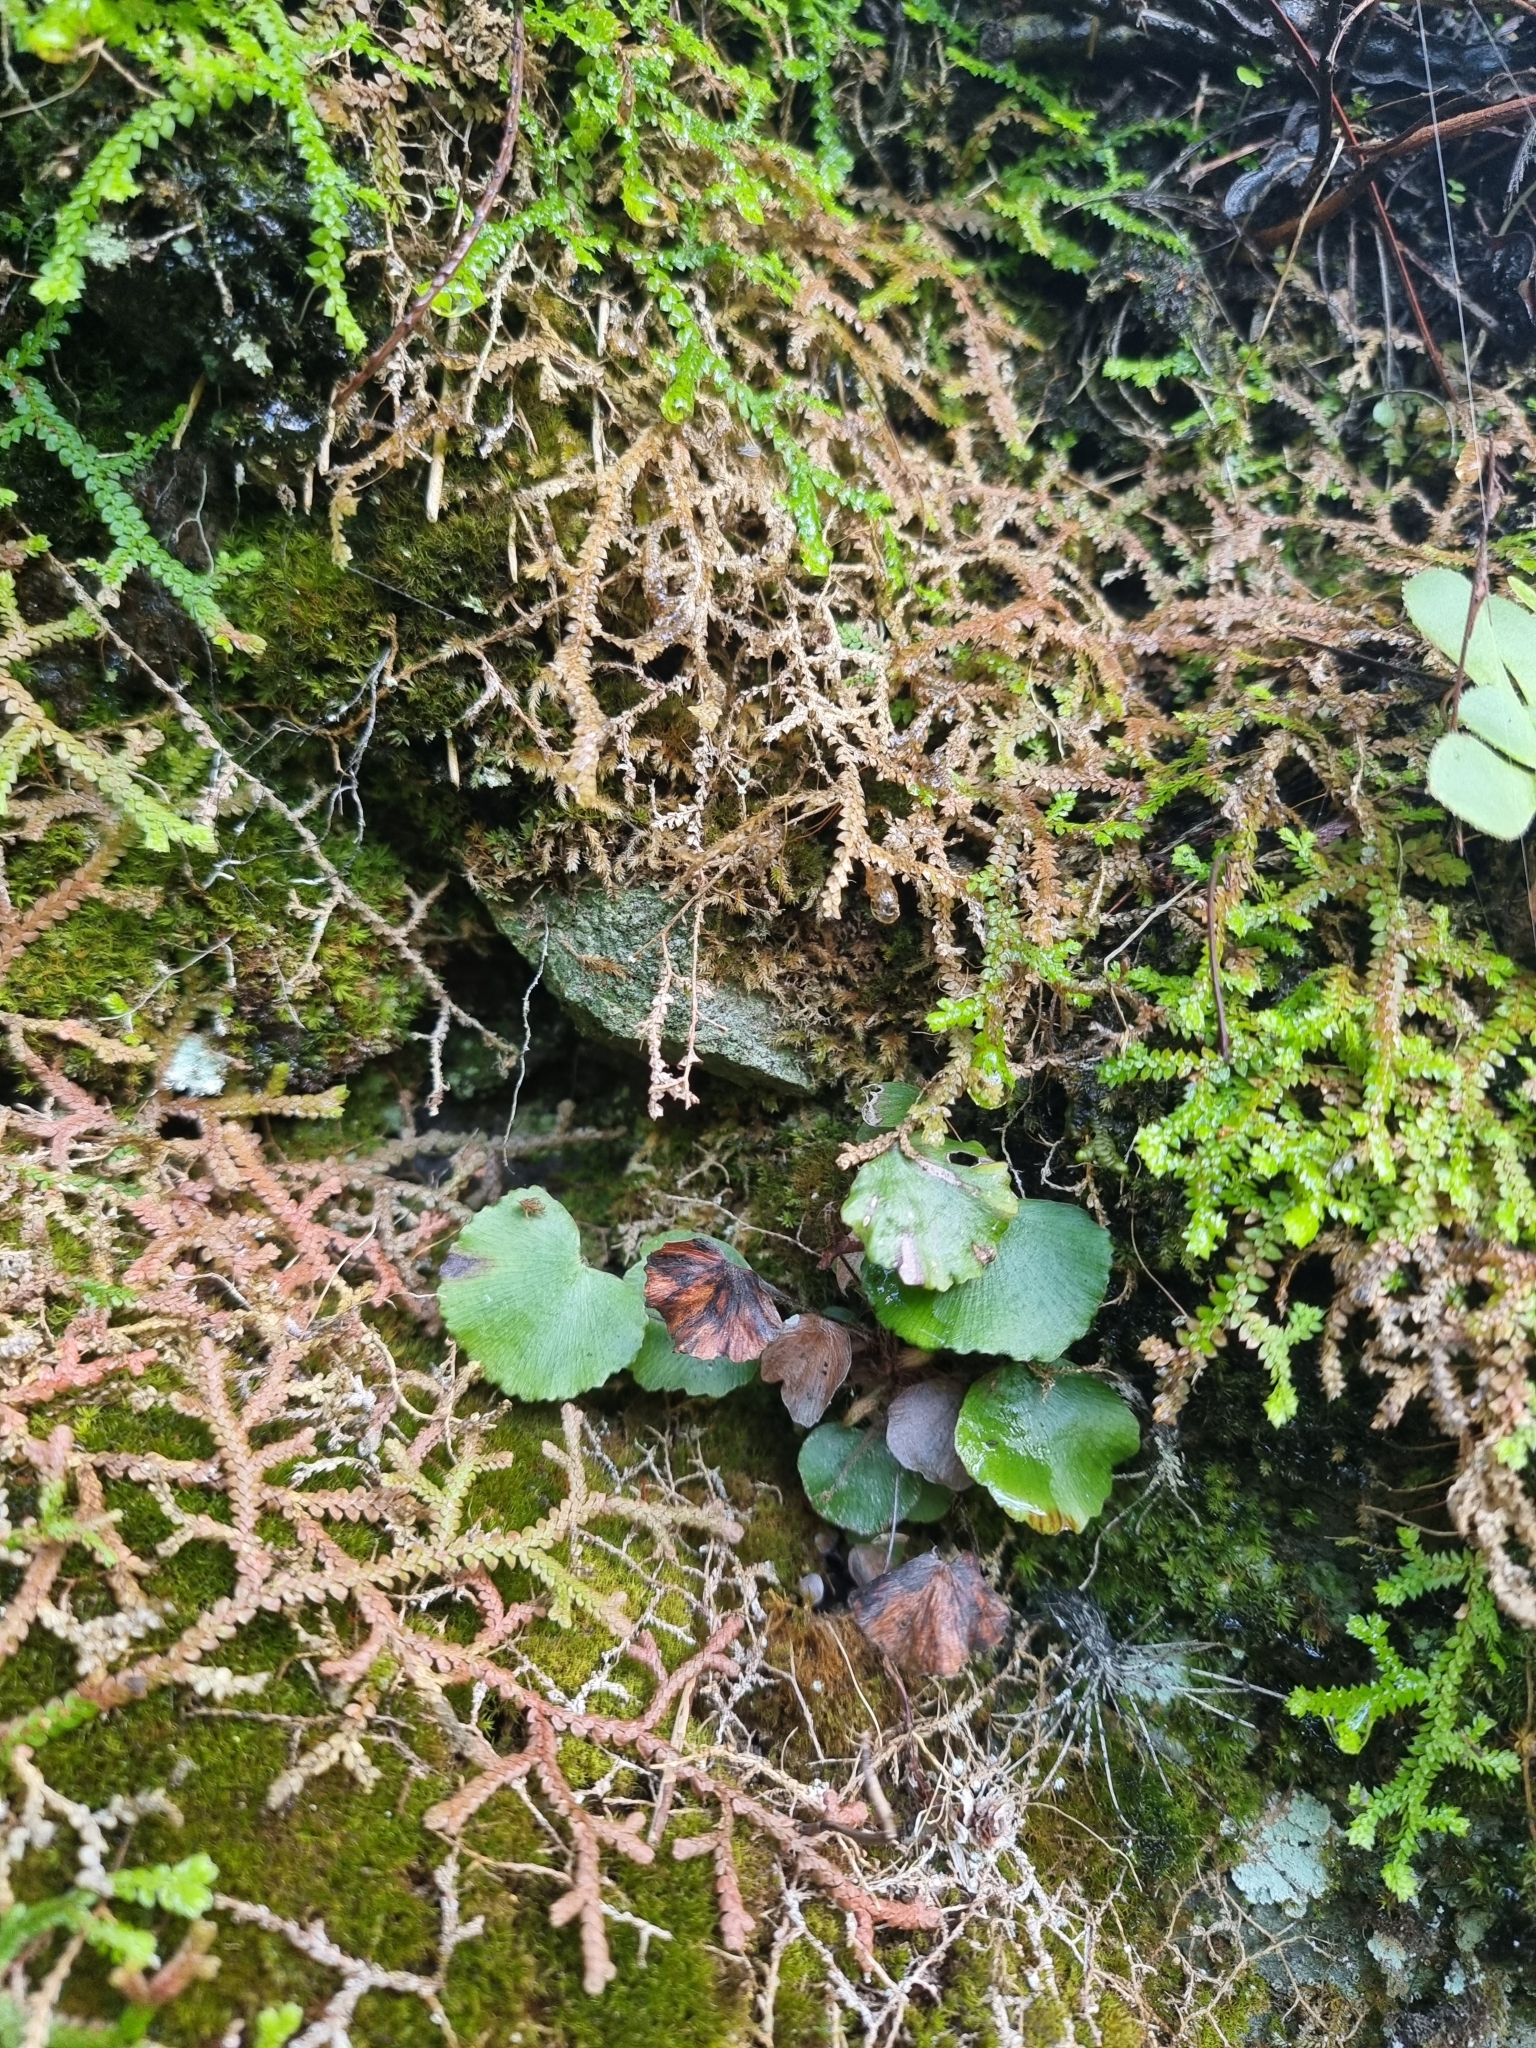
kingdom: Plantae
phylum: Tracheophyta
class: Polypodiopsida
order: Polypodiales
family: Pteridaceae
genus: Adiantum
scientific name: Adiantum reniforme
